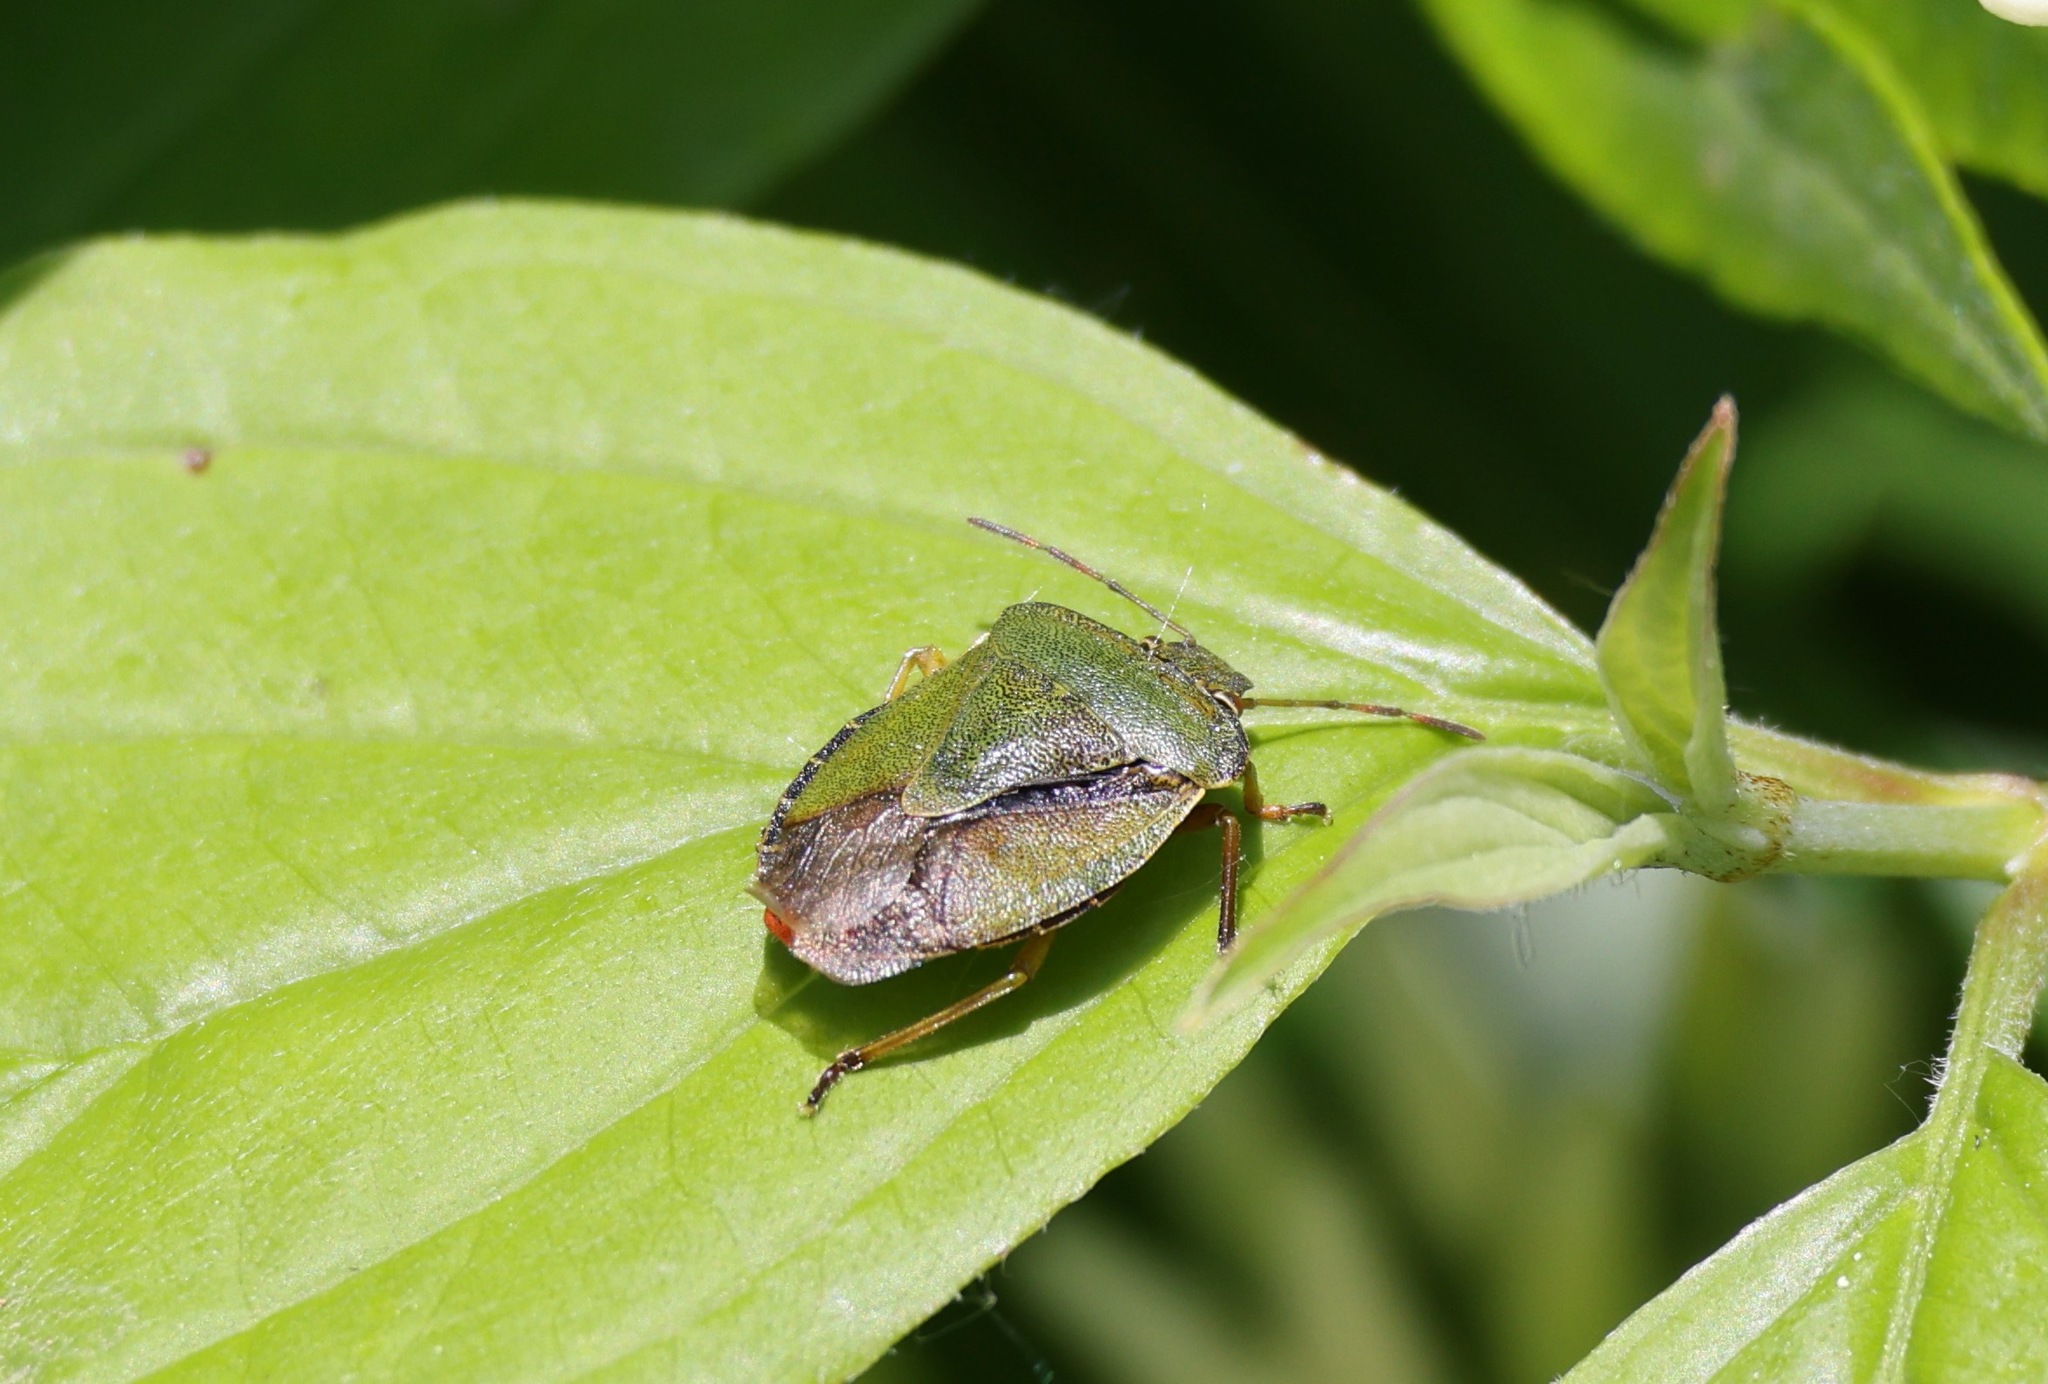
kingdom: Animalia
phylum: Arthropoda
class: Insecta
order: Hemiptera
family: Pentatomidae
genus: Palomena
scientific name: Palomena prasina
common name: Green shieldbug
